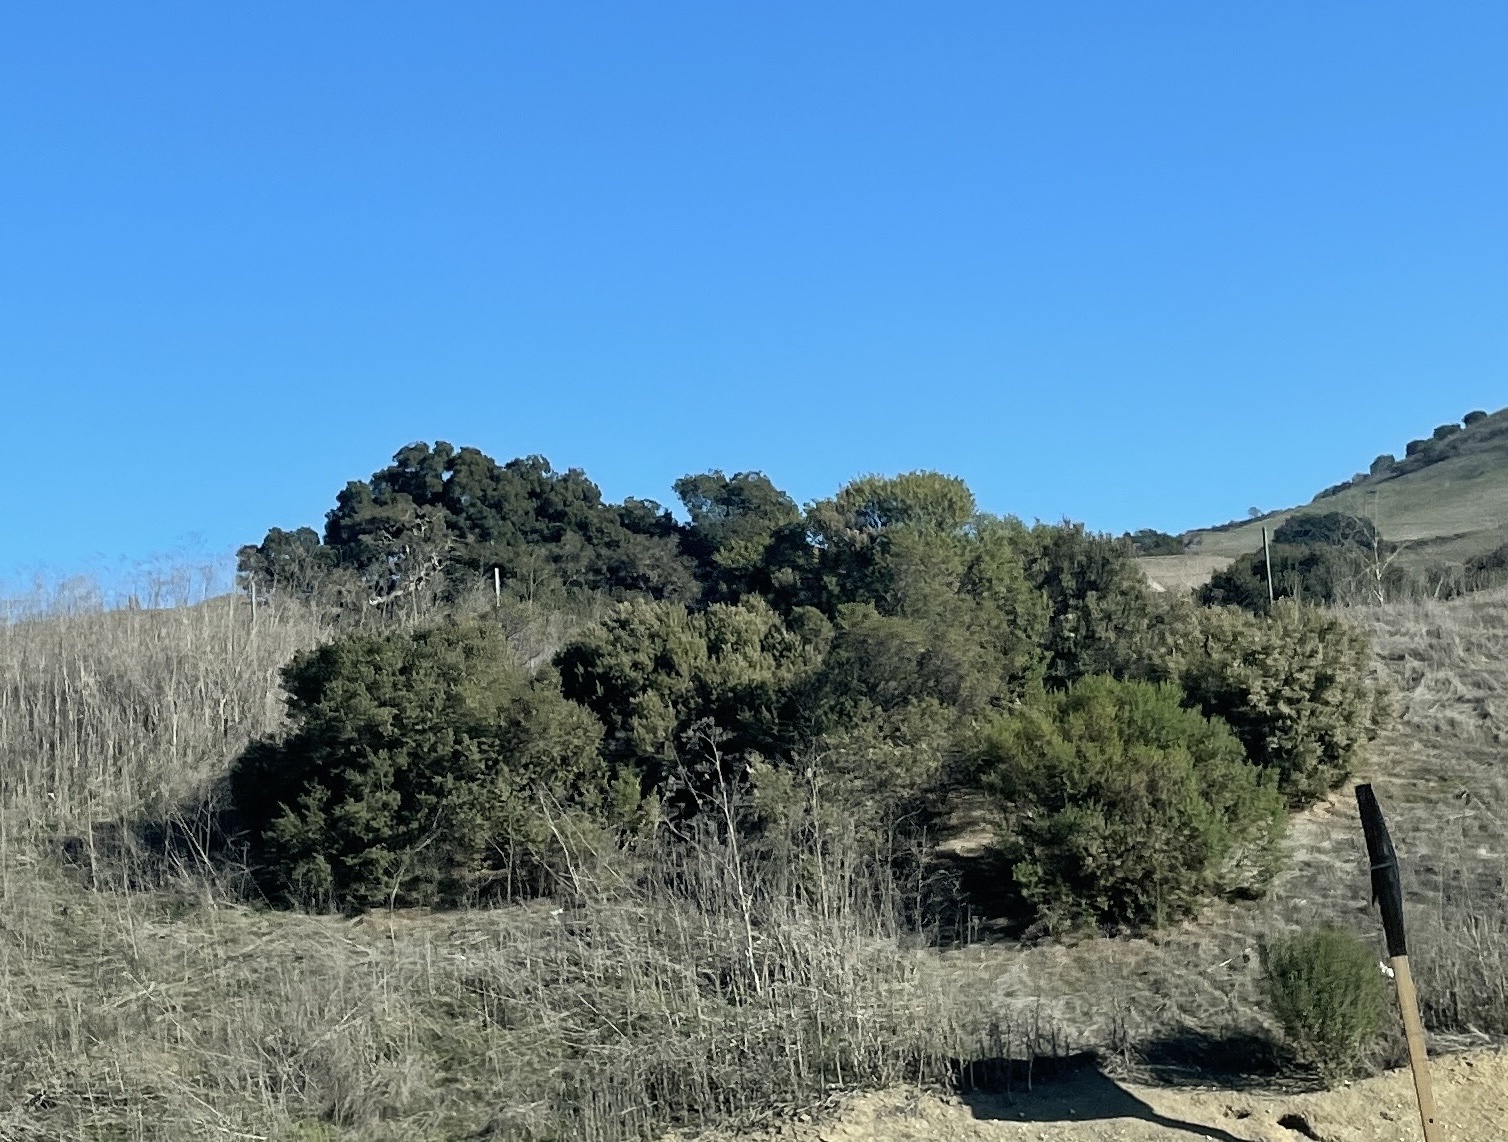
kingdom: Plantae
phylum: Tracheophyta
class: Magnoliopsida
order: Asterales
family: Asteraceae
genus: Baccharis
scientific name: Baccharis pilularis
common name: Coyotebrush
